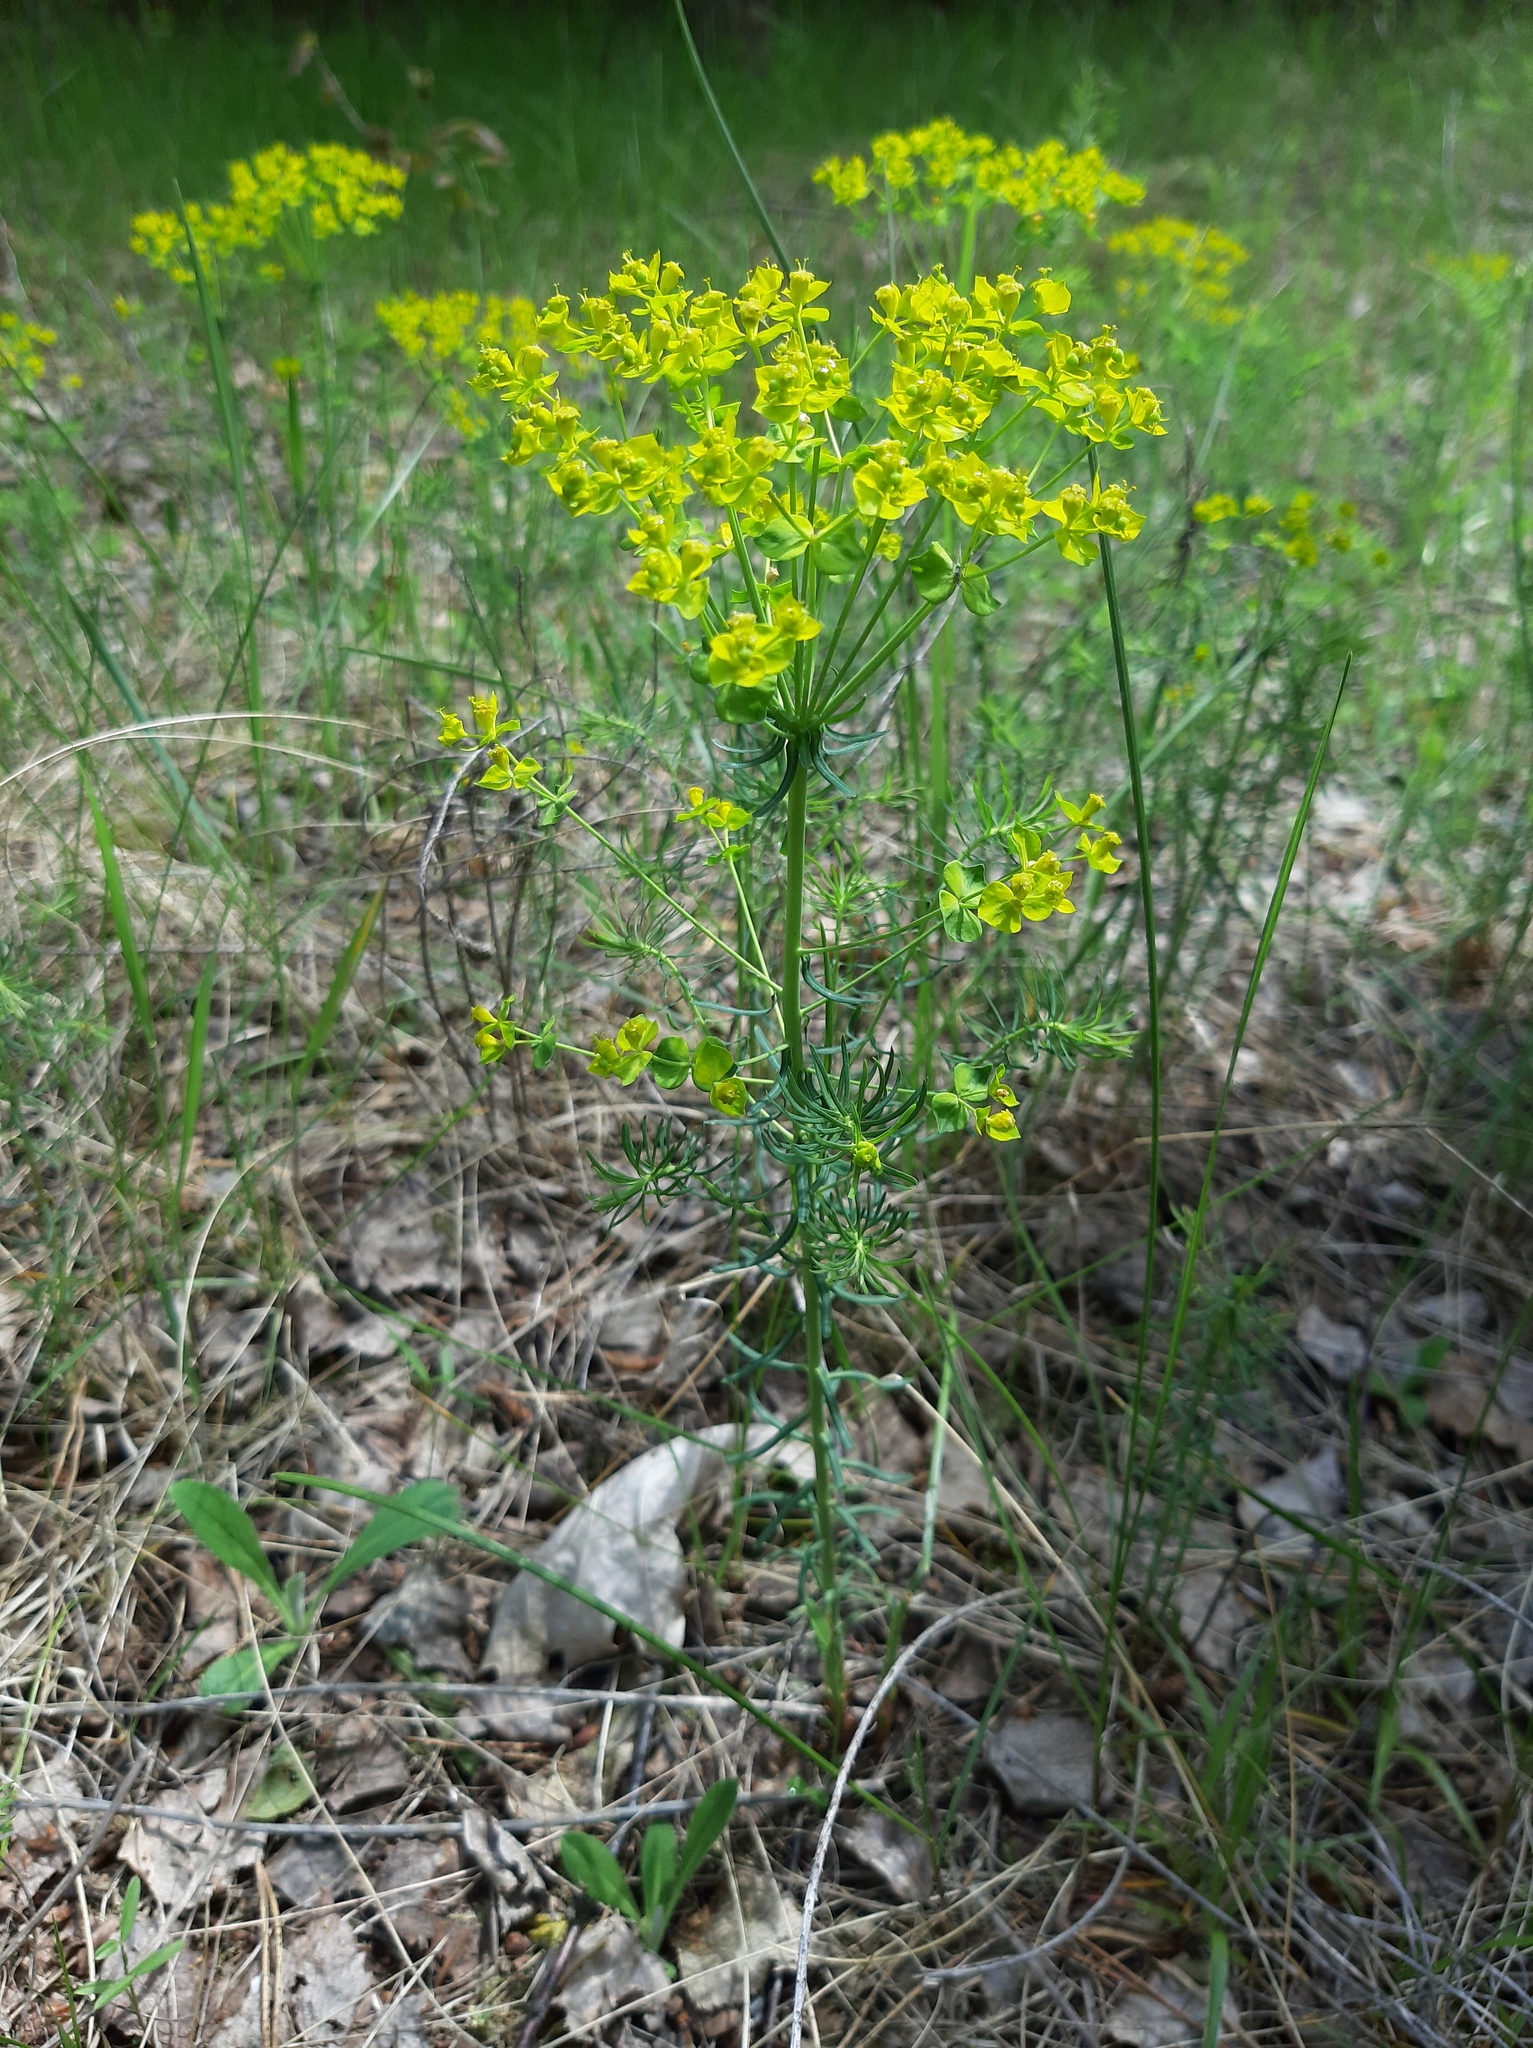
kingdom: Plantae
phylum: Tracheophyta
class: Magnoliopsida
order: Malpighiales
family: Euphorbiaceae
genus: Euphorbia
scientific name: Euphorbia cyparissias
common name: Cypress spurge
